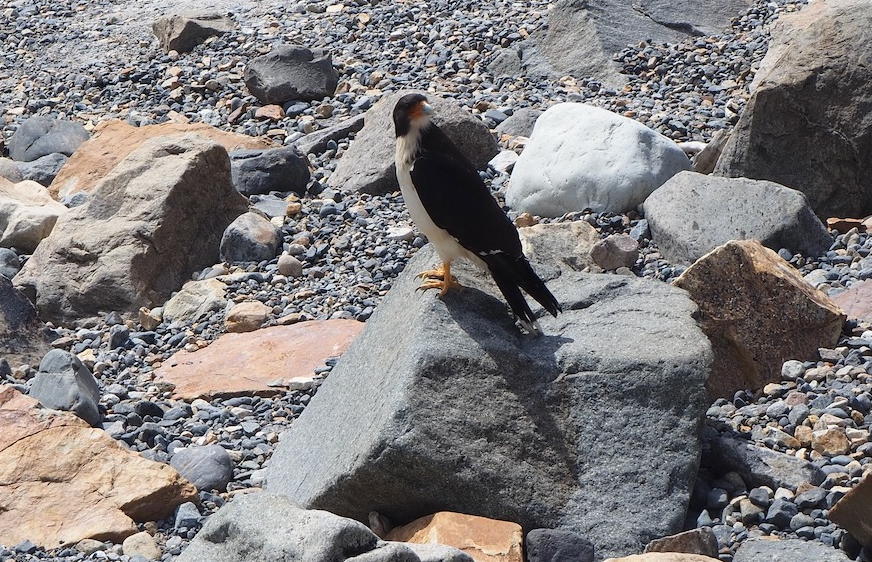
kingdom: Animalia
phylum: Chordata
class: Aves
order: Falconiformes
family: Falconidae
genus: Daptrius
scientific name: Daptrius
